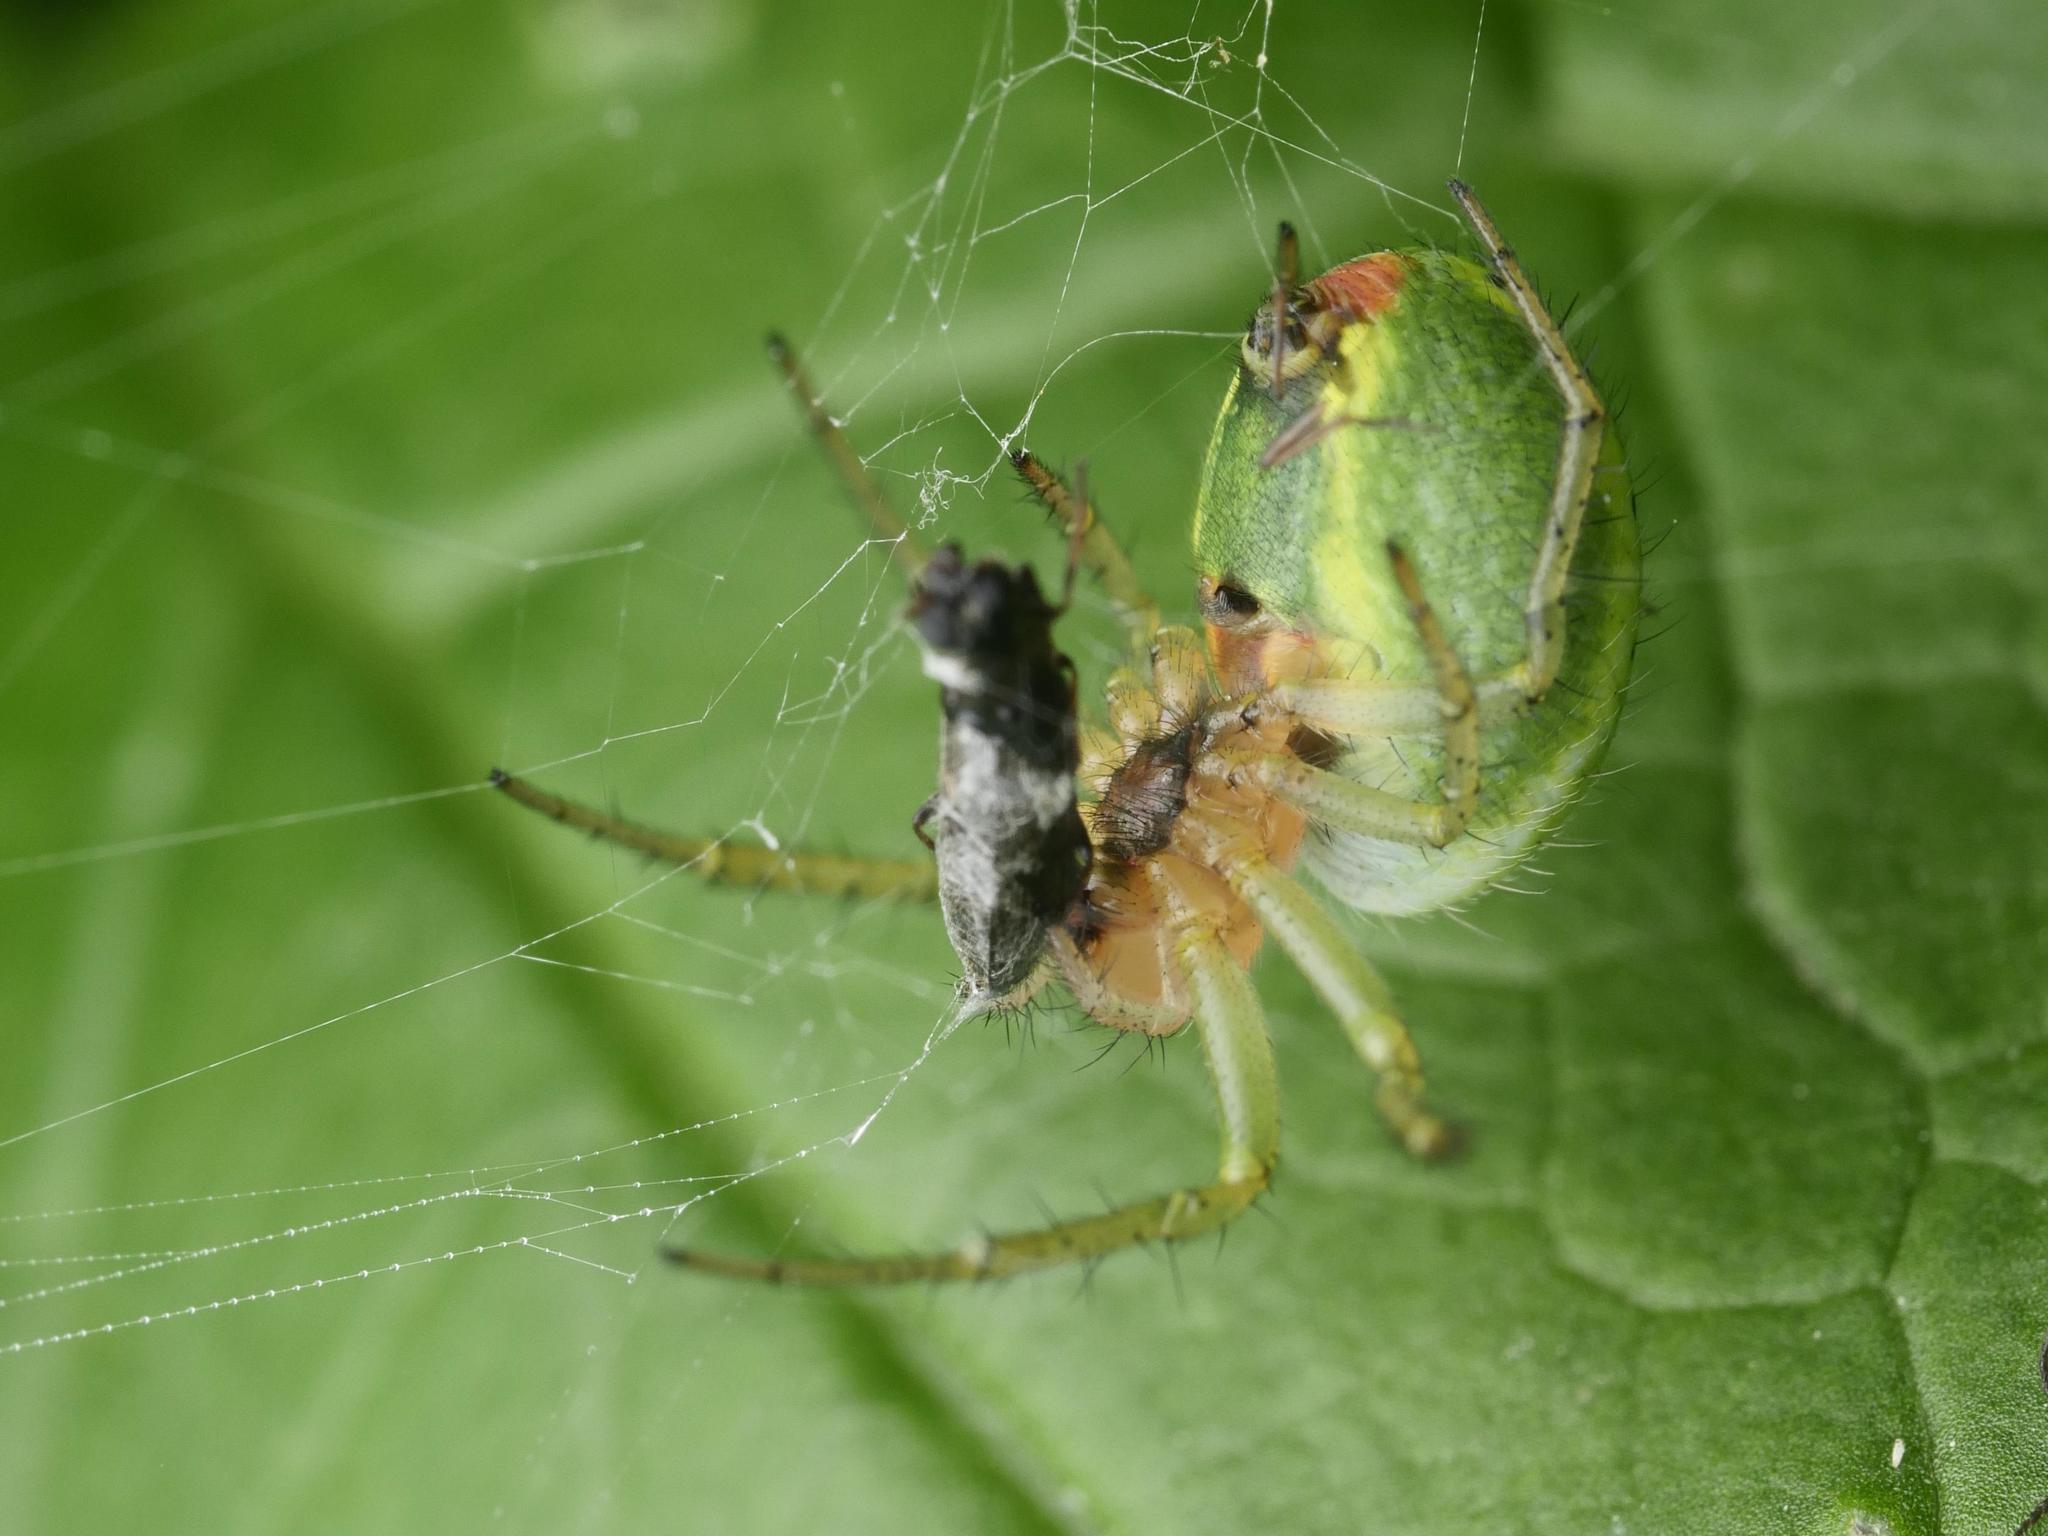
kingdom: Animalia
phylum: Arthropoda
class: Arachnida
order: Araneae
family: Araneidae
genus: Araniella
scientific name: Araniella
